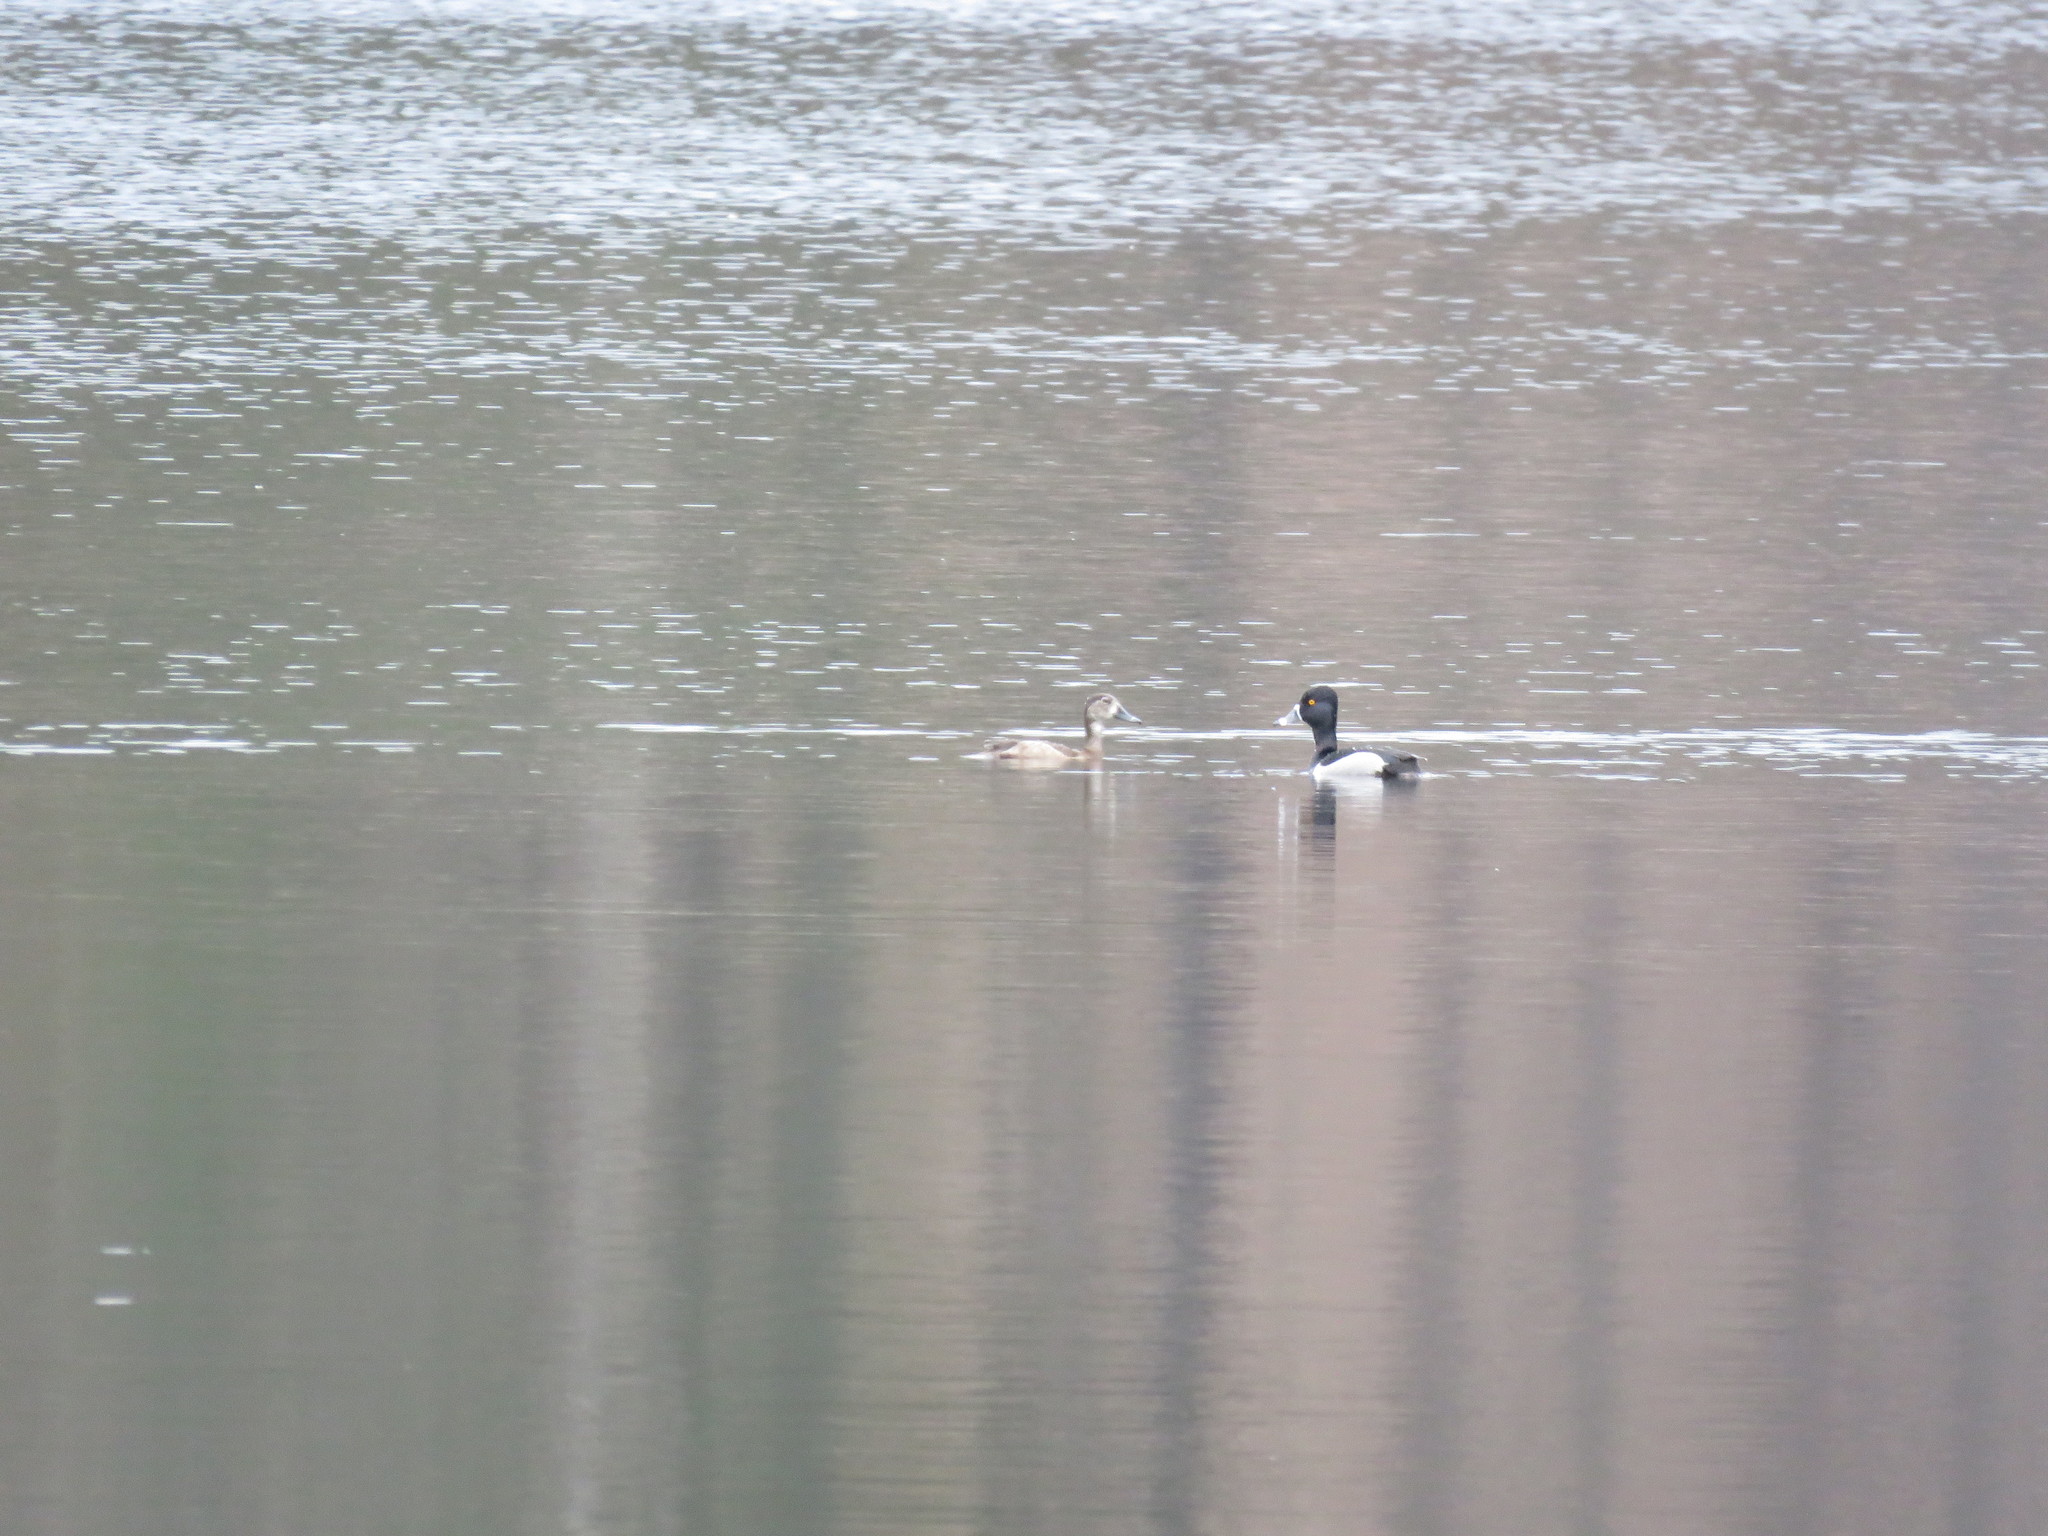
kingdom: Animalia
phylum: Chordata
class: Aves
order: Anseriformes
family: Anatidae
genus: Aythya
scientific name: Aythya collaris
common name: Ring-necked duck
